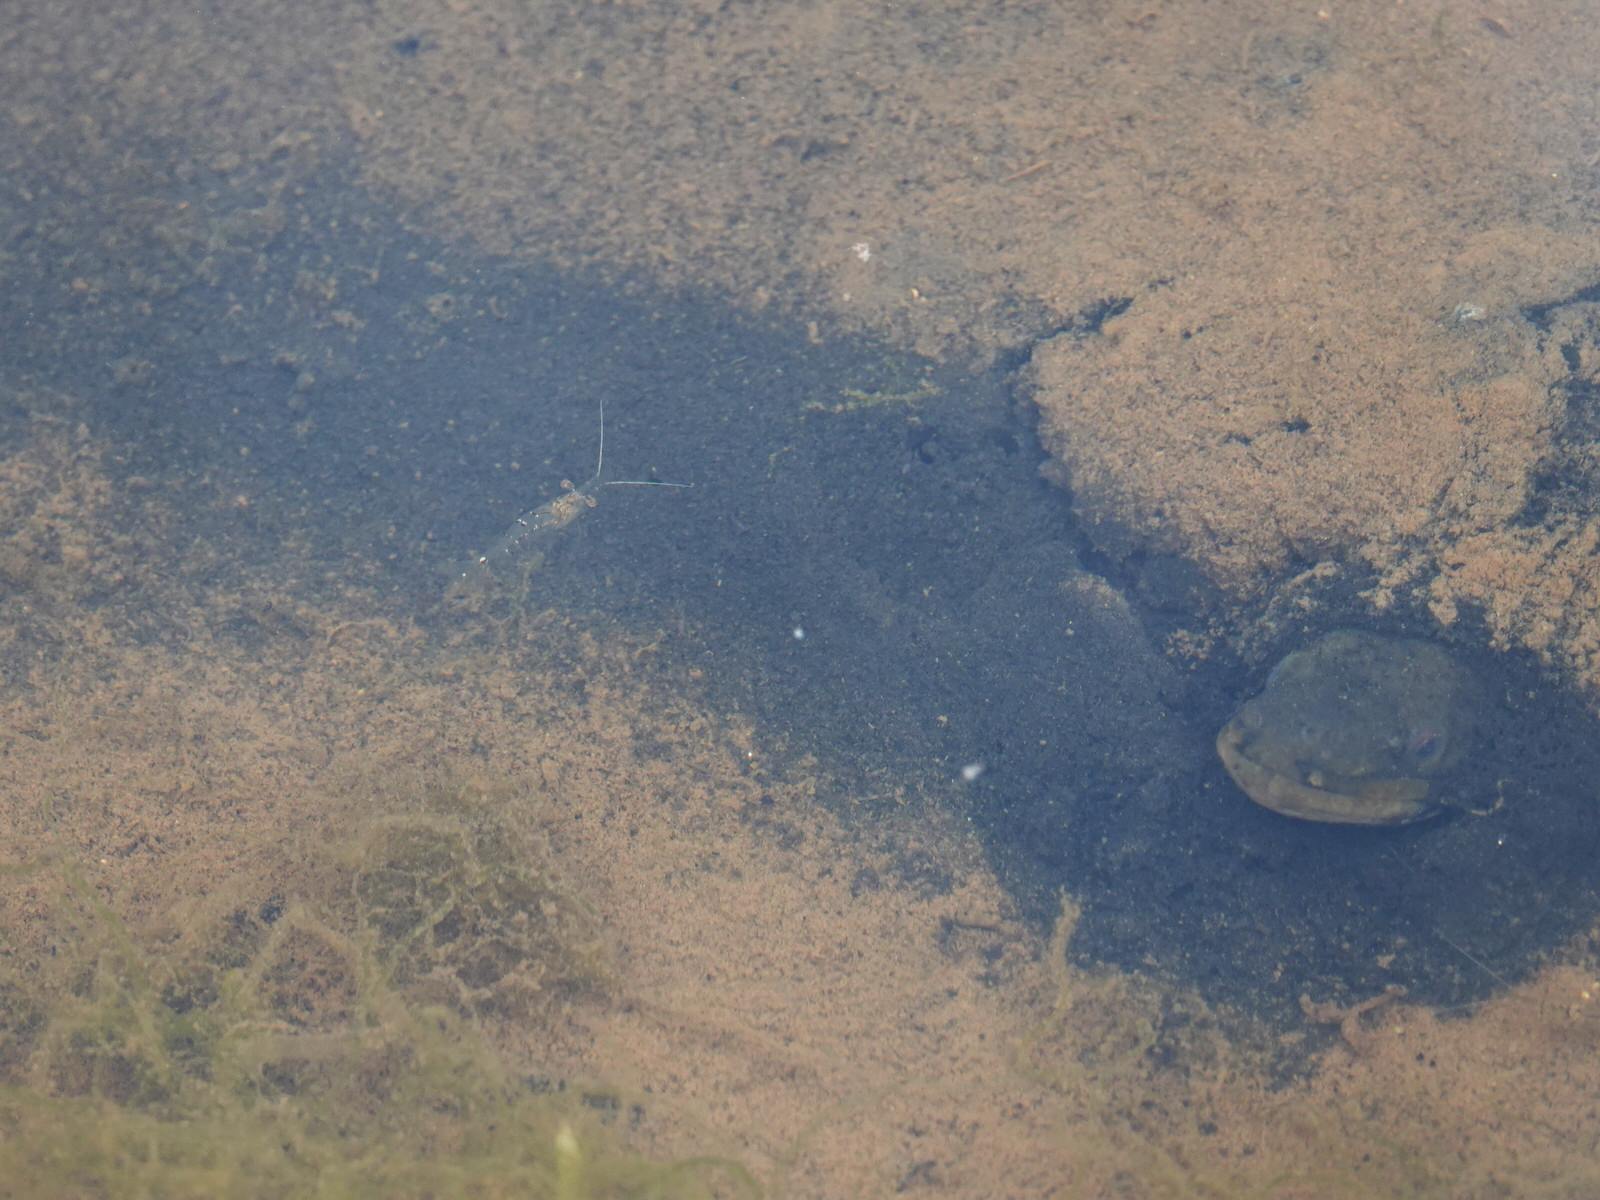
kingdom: Animalia
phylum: Arthropoda
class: Malacostraca
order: Decapoda
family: Palaemonidae
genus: Palaemon
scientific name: Palaemon affinis
